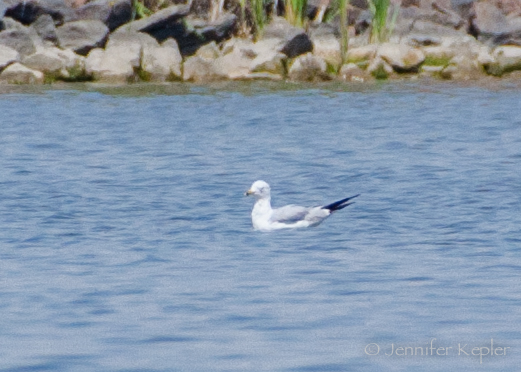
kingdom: Animalia
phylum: Chordata
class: Aves
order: Charadriiformes
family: Laridae
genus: Larus
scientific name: Larus delawarensis
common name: Ring-billed gull
